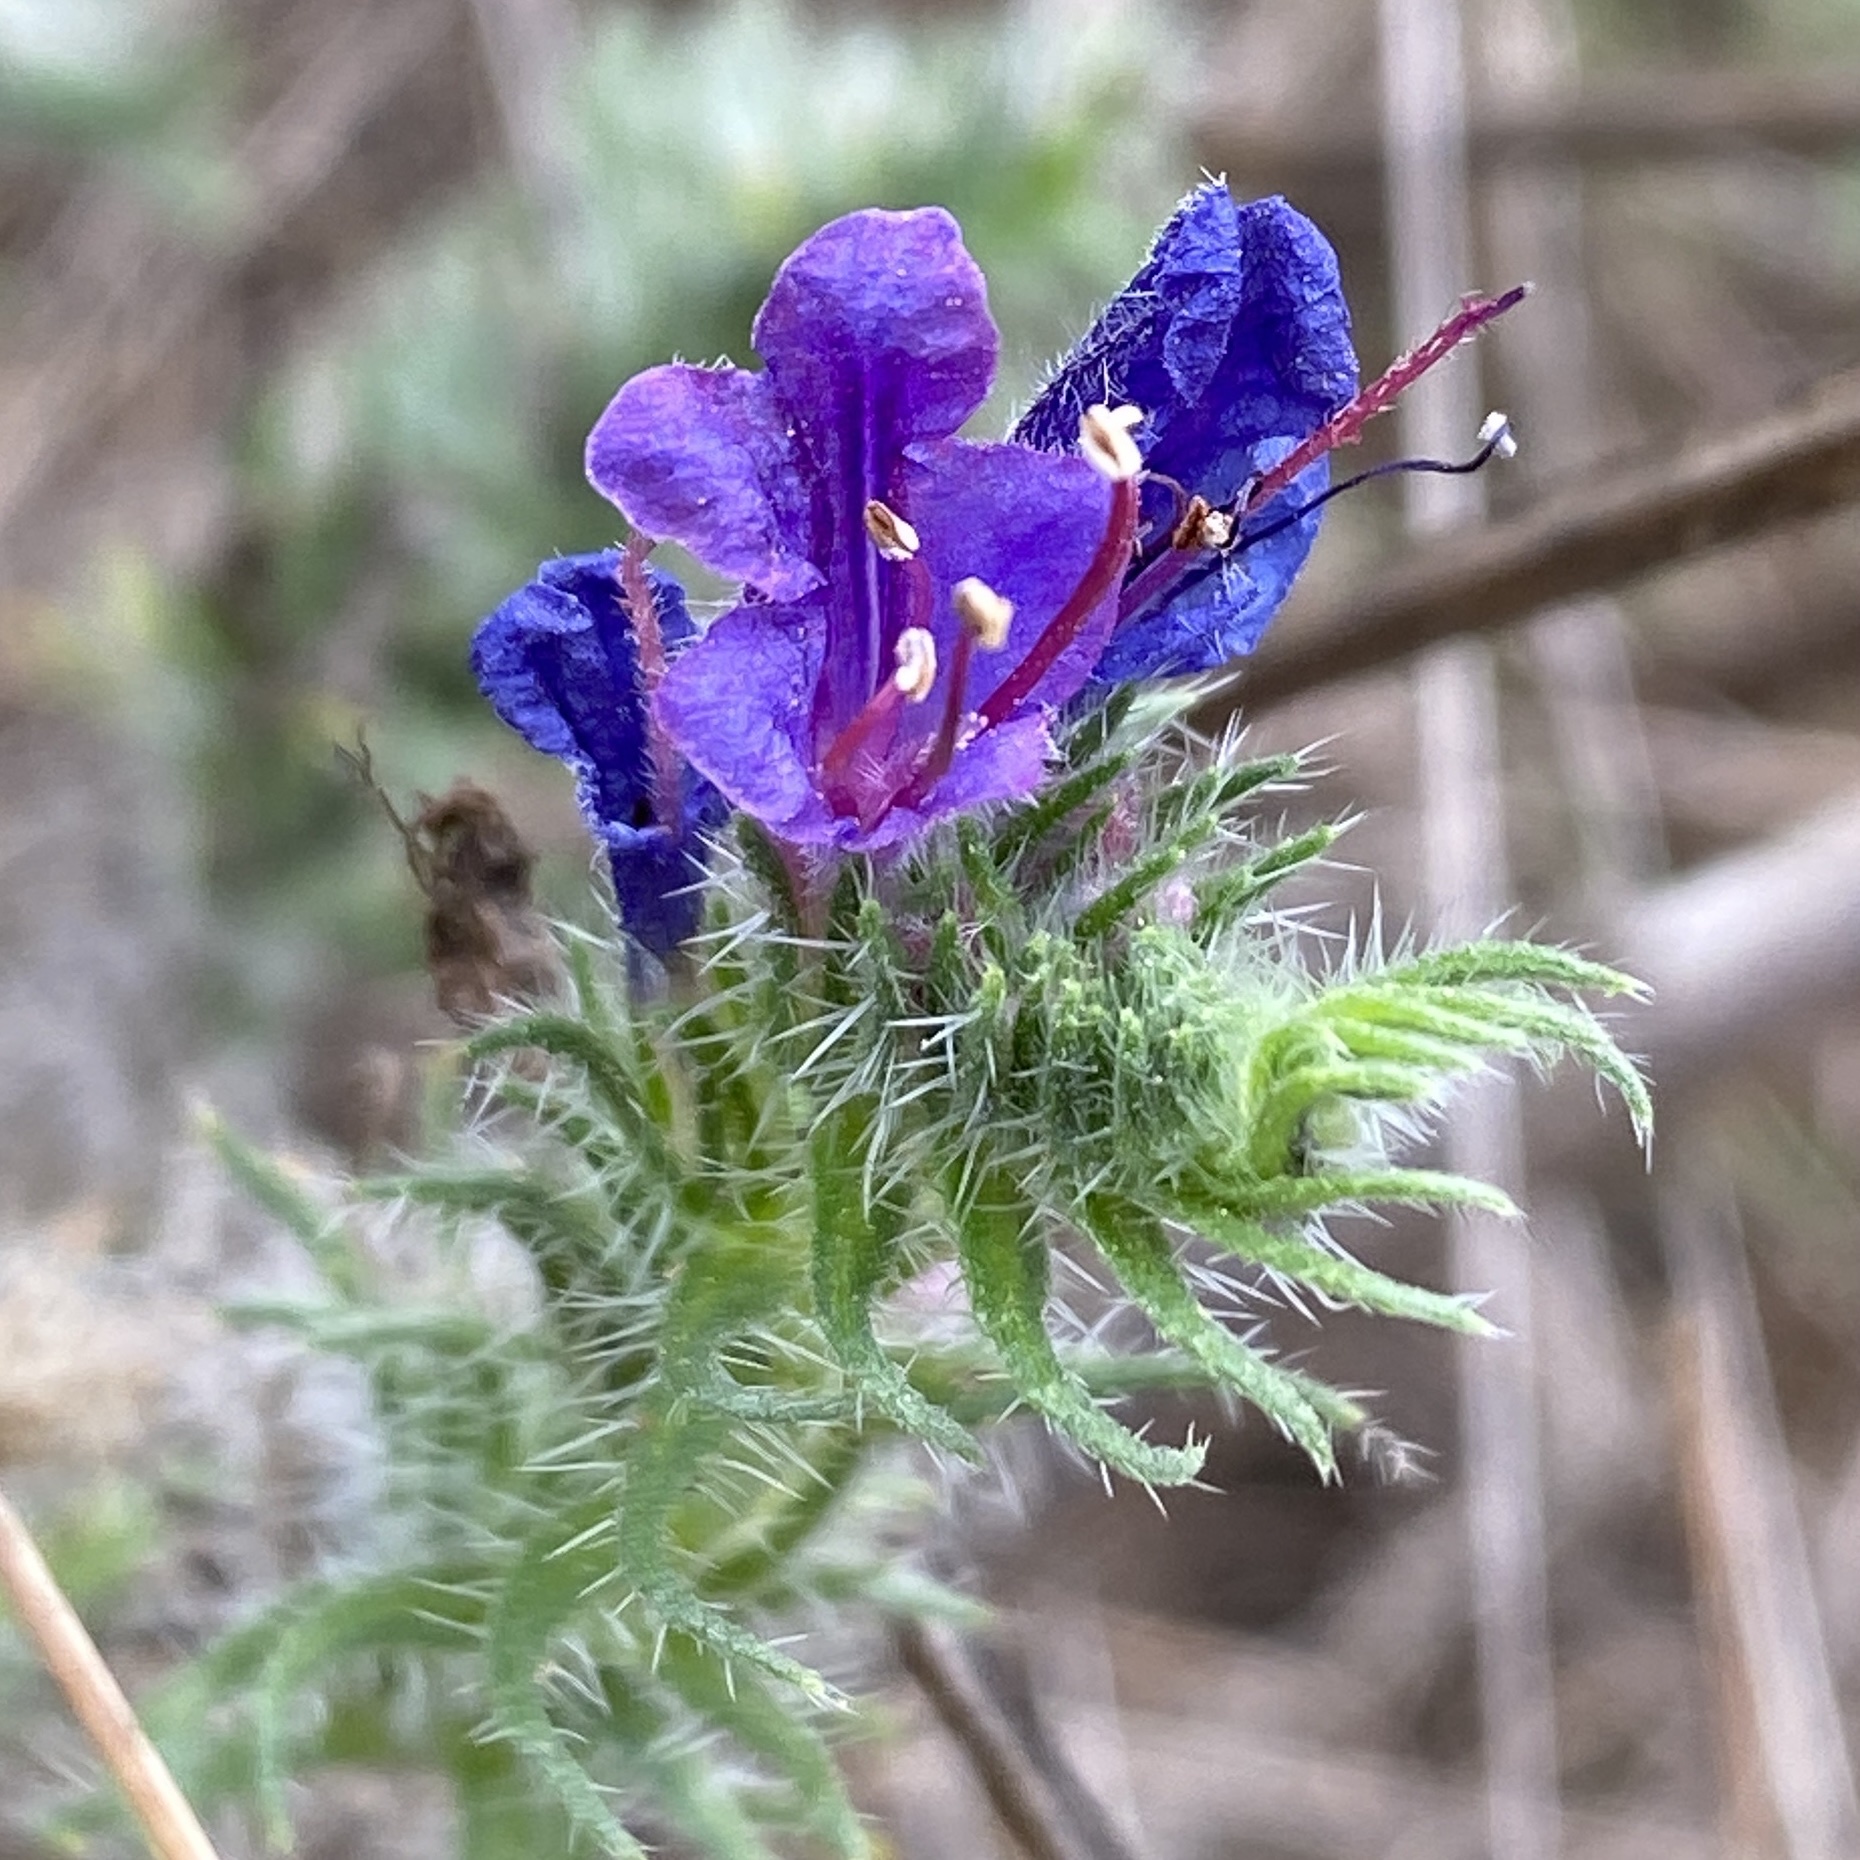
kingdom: Plantae
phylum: Tracheophyta
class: Magnoliopsida
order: Boraginales
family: Boraginaceae
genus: Echium
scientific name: Echium vulgare
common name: Common viper's bugloss
